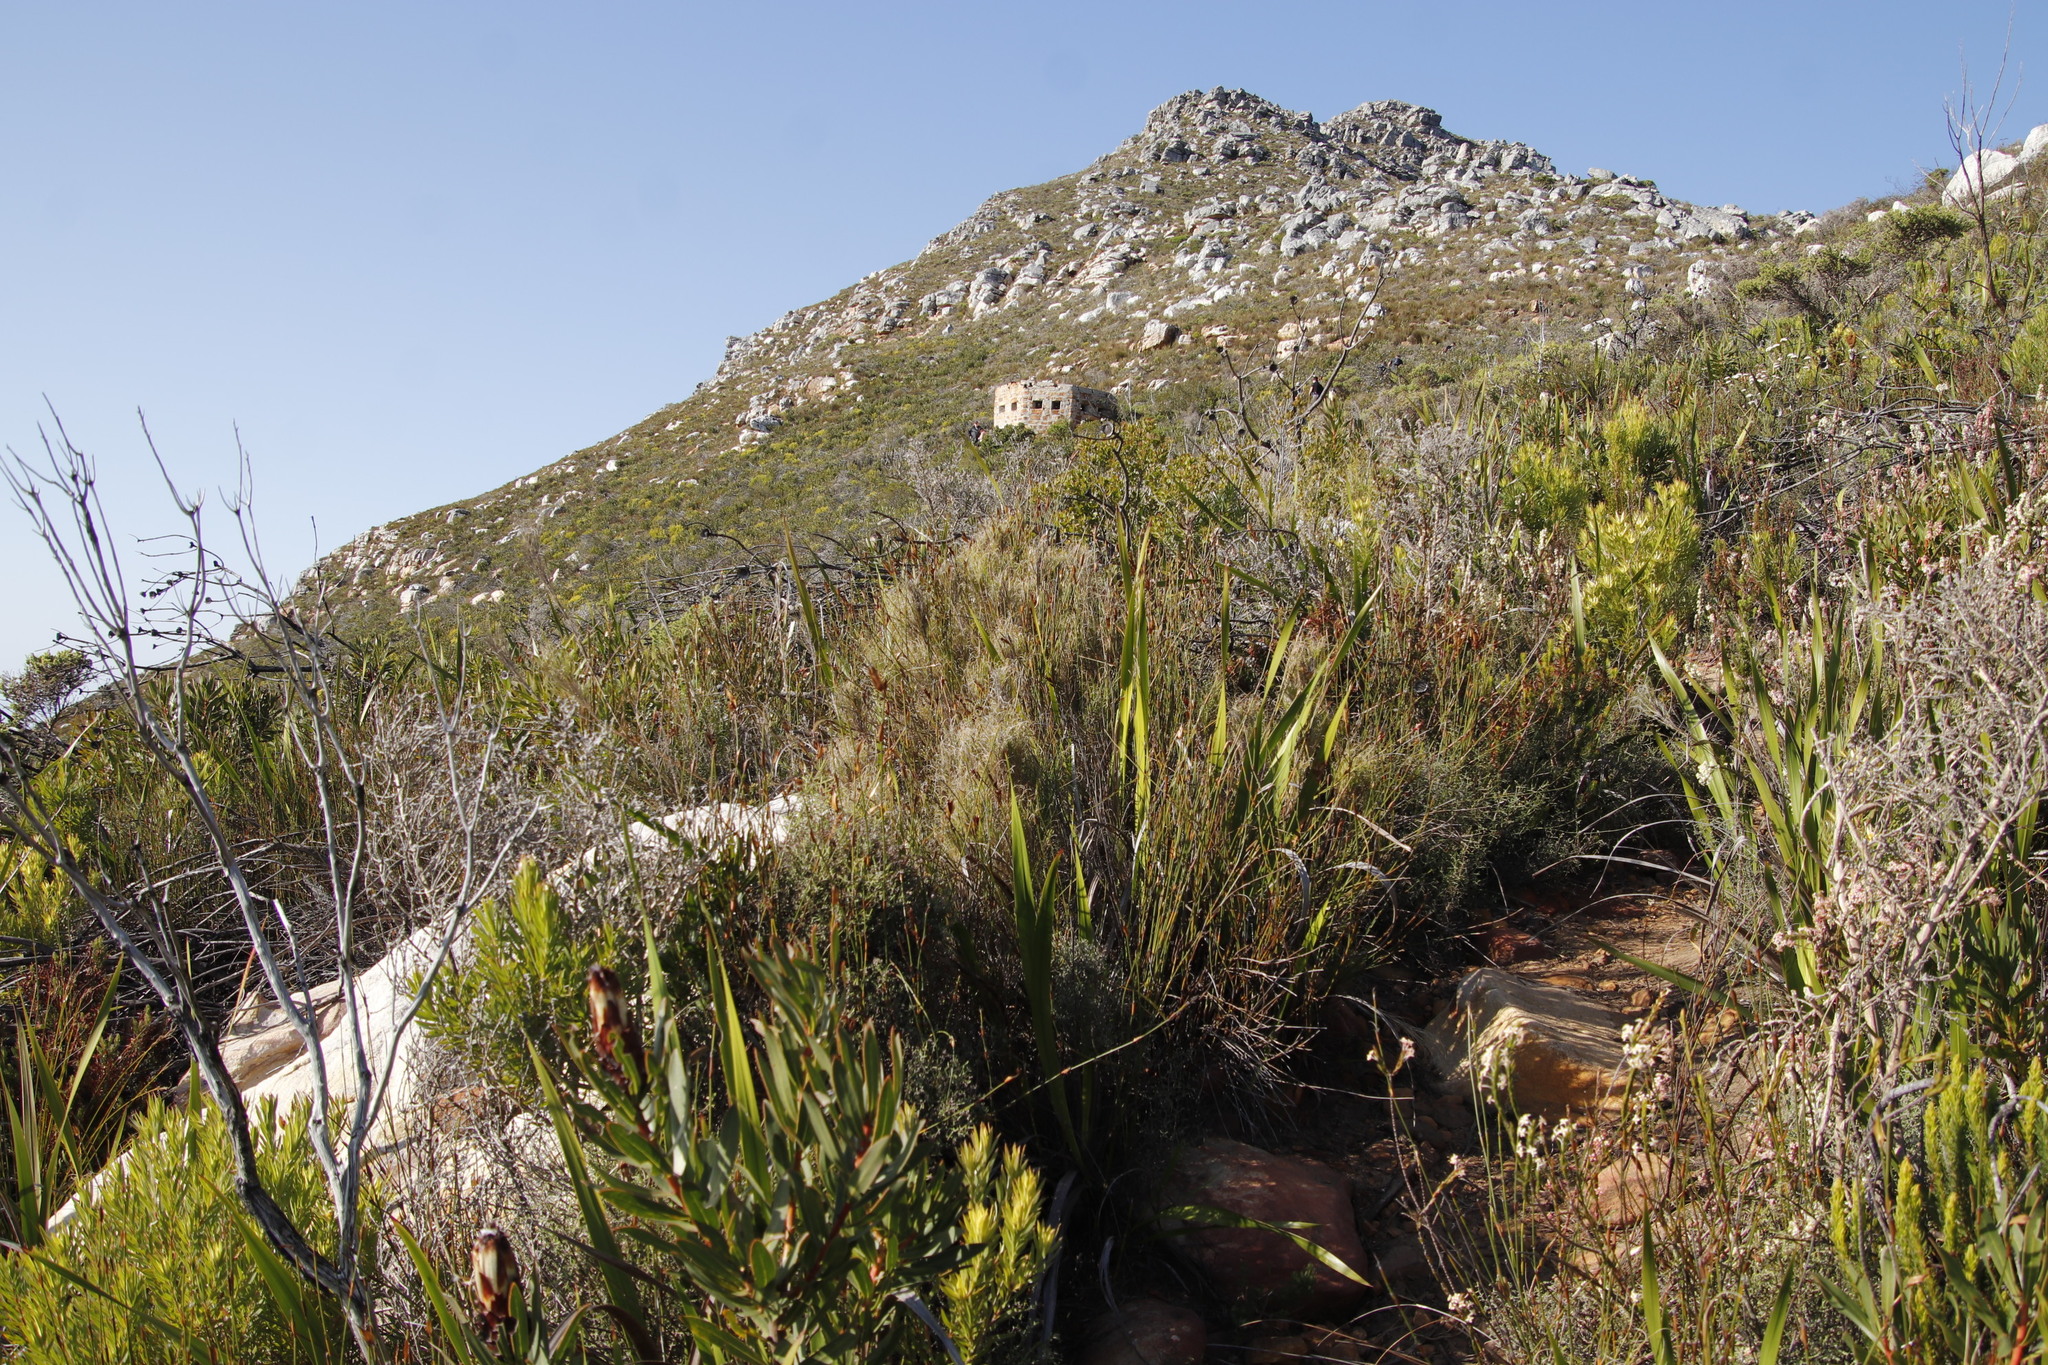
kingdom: Plantae
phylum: Tracheophyta
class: Liliopsida
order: Poales
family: Poaceae
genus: Pseudopentameris
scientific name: Pseudopentameris macrantha
